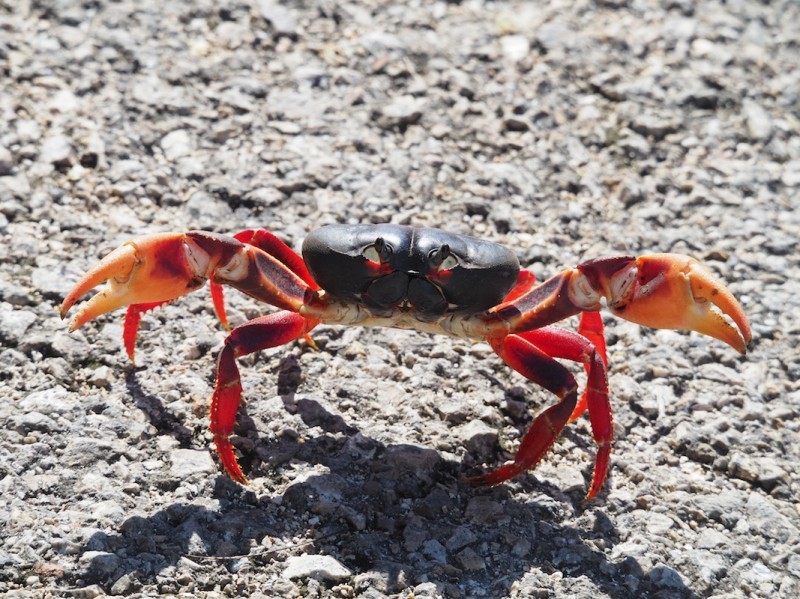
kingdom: Animalia
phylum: Arthropoda
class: Malacostraca
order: Decapoda
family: Gecarcinidae
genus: Gecarcinus
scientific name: Gecarcinus ruricola
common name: Black land crab
